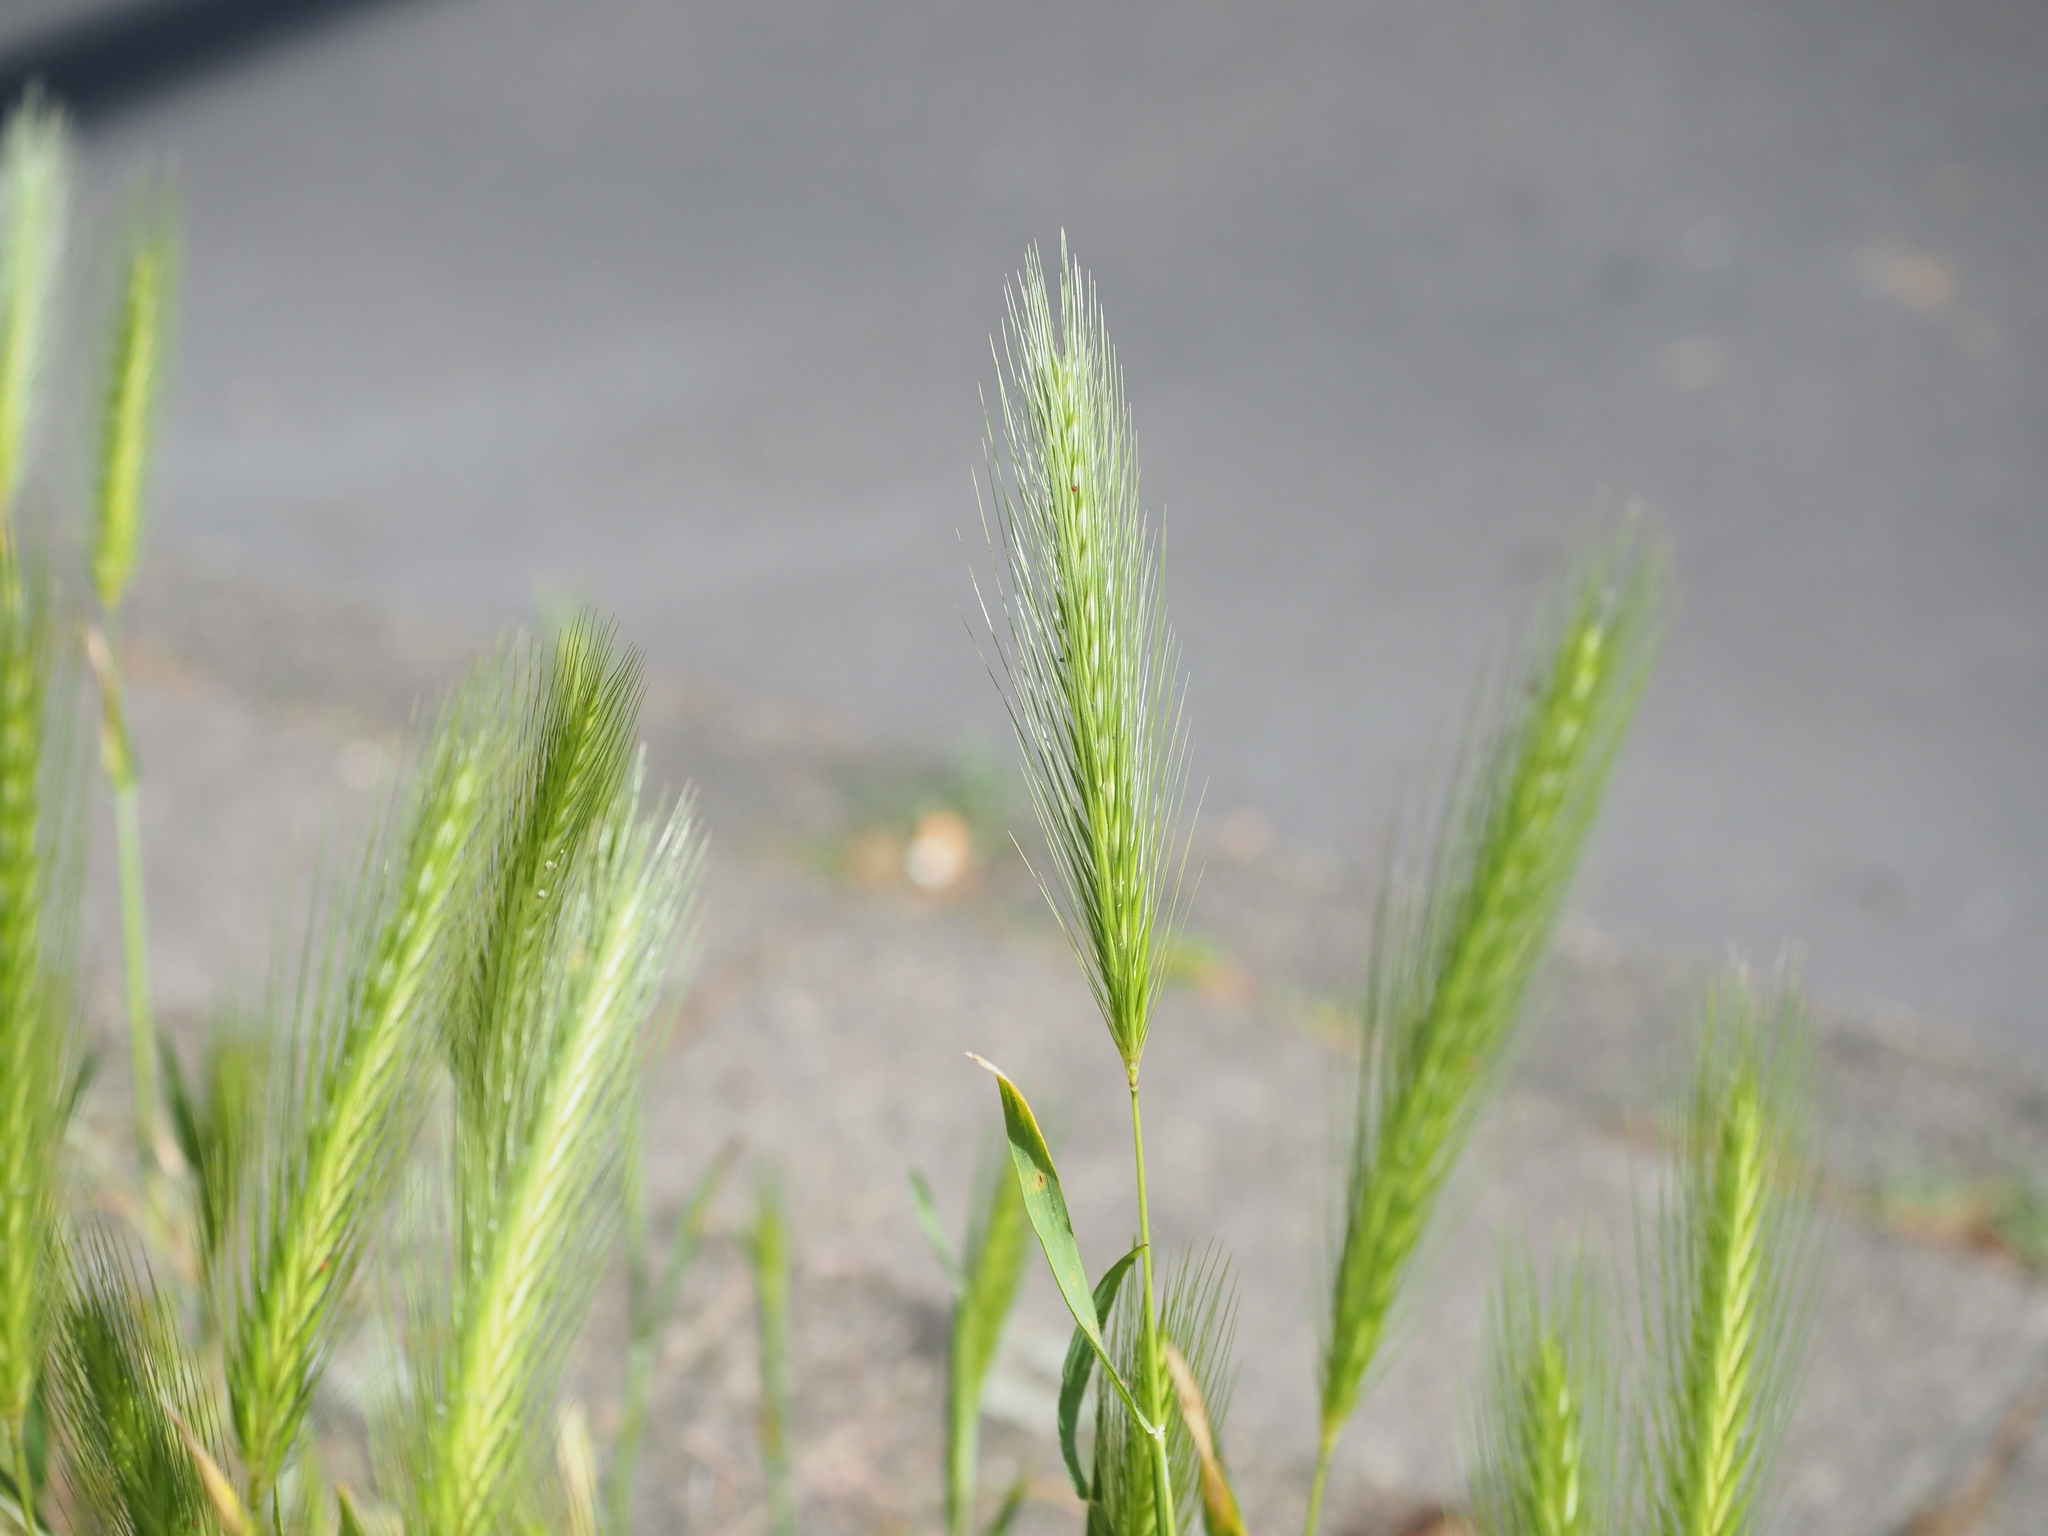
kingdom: Plantae
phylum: Tracheophyta
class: Liliopsida
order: Poales
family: Poaceae
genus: Hordeum
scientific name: Hordeum murinum
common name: Wall barley
